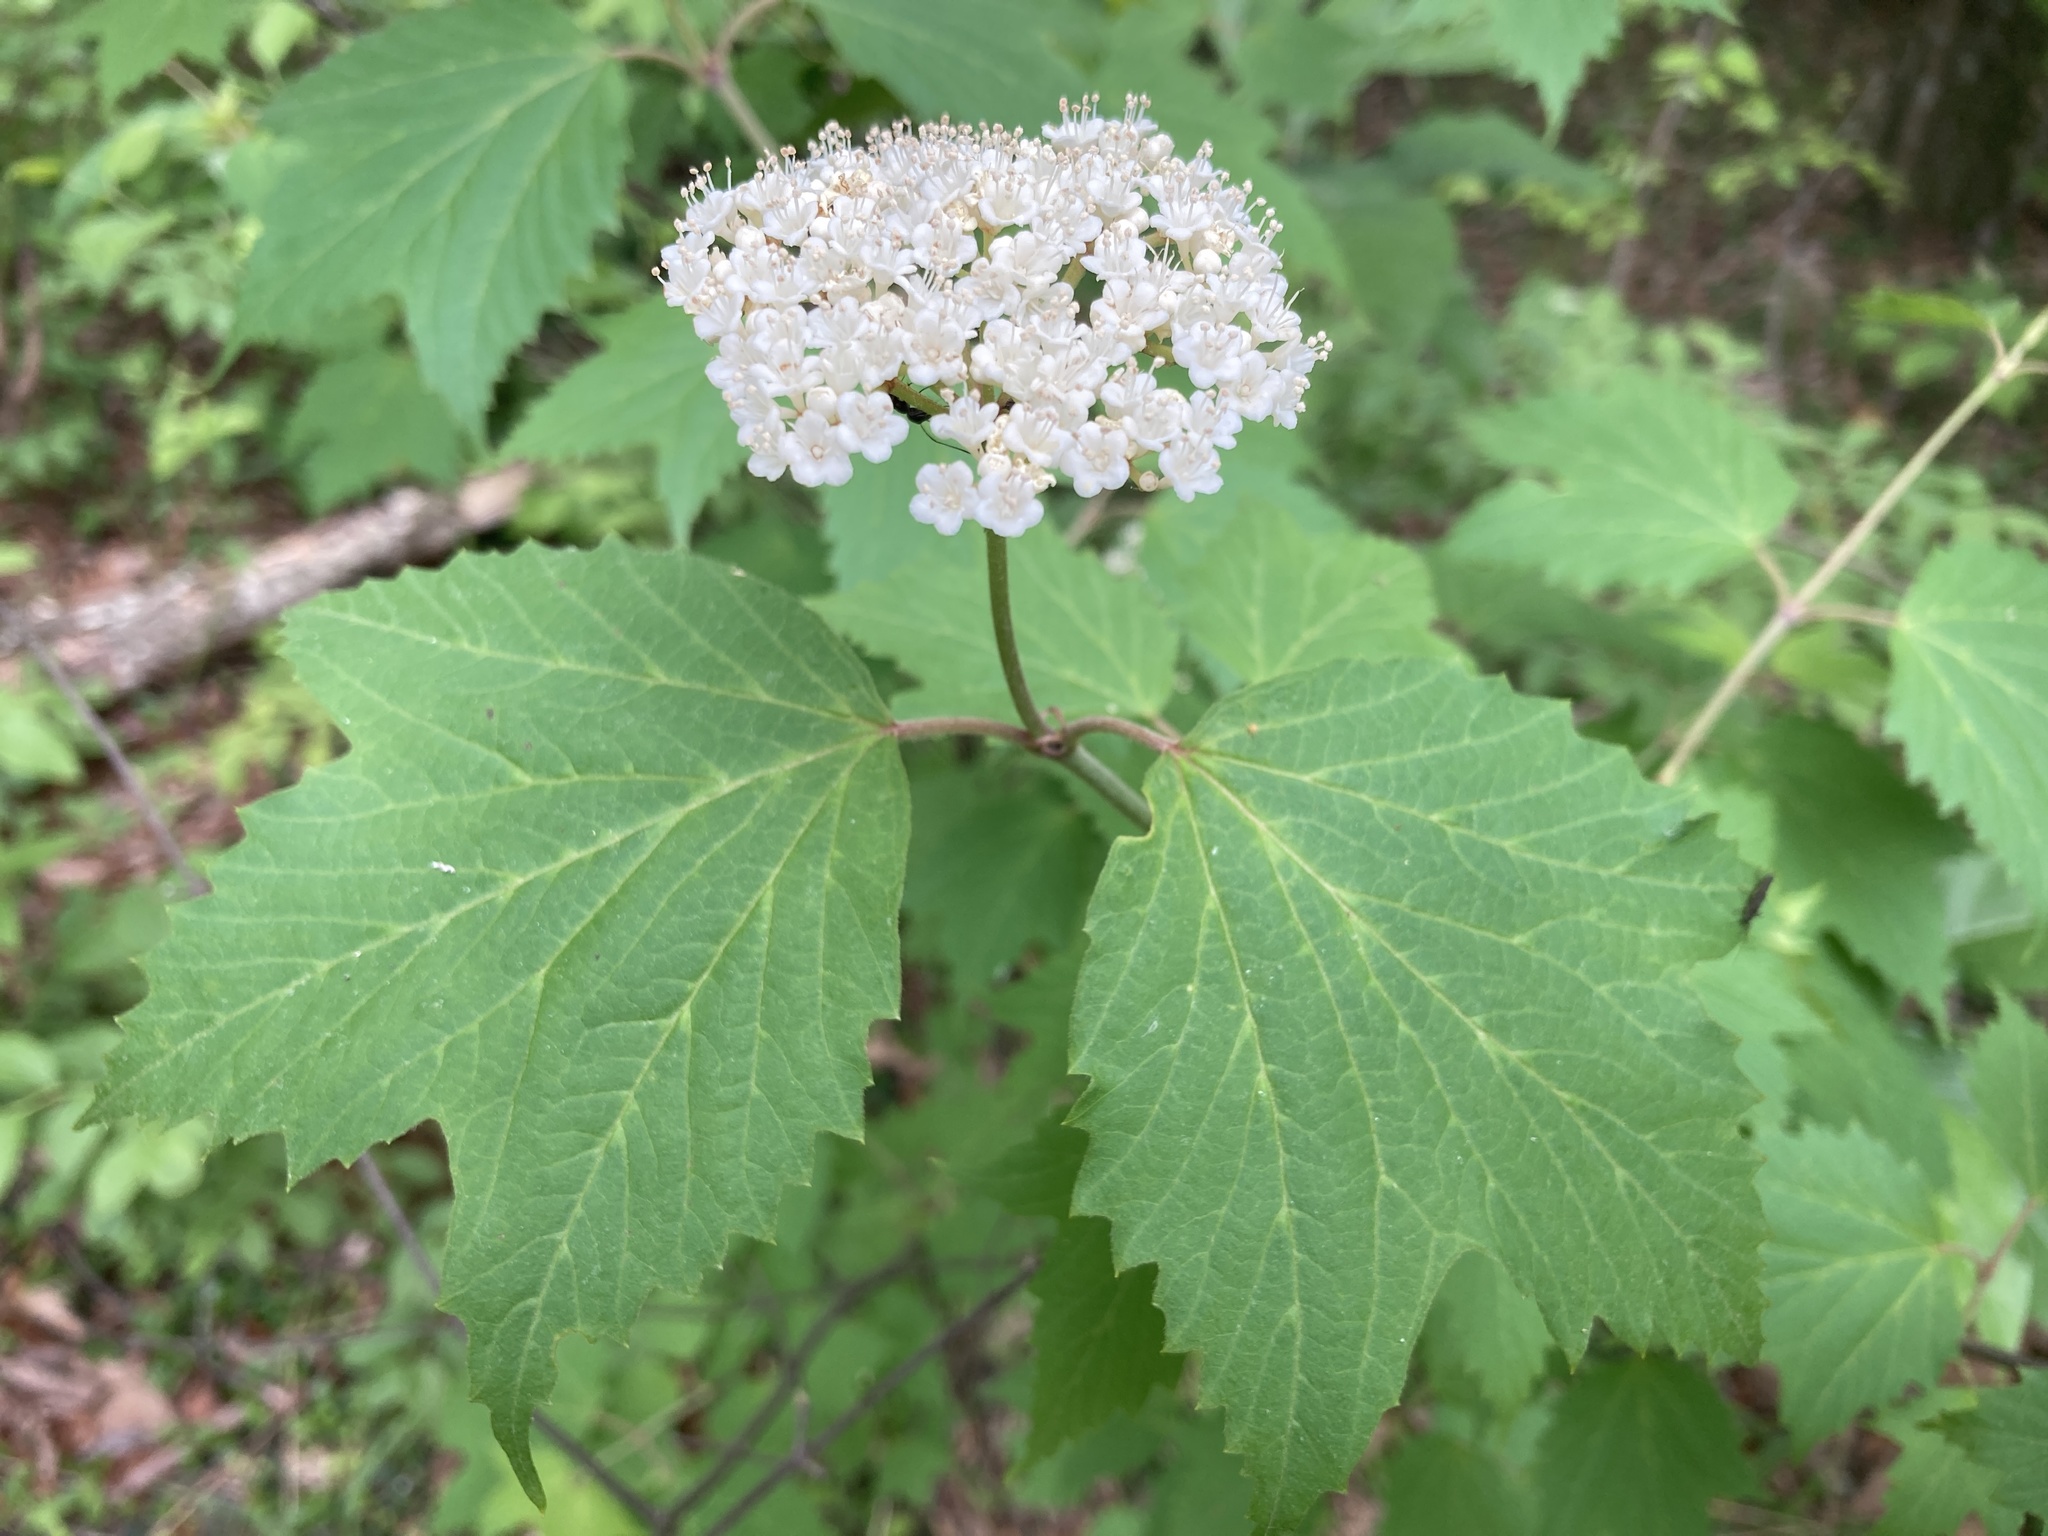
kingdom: Plantae
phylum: Tracheophyta
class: Magnoliopsida
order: Dipsacales
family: Viburnaceae
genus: Viburnum
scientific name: Viburnum acerifolium
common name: Dockmackie
